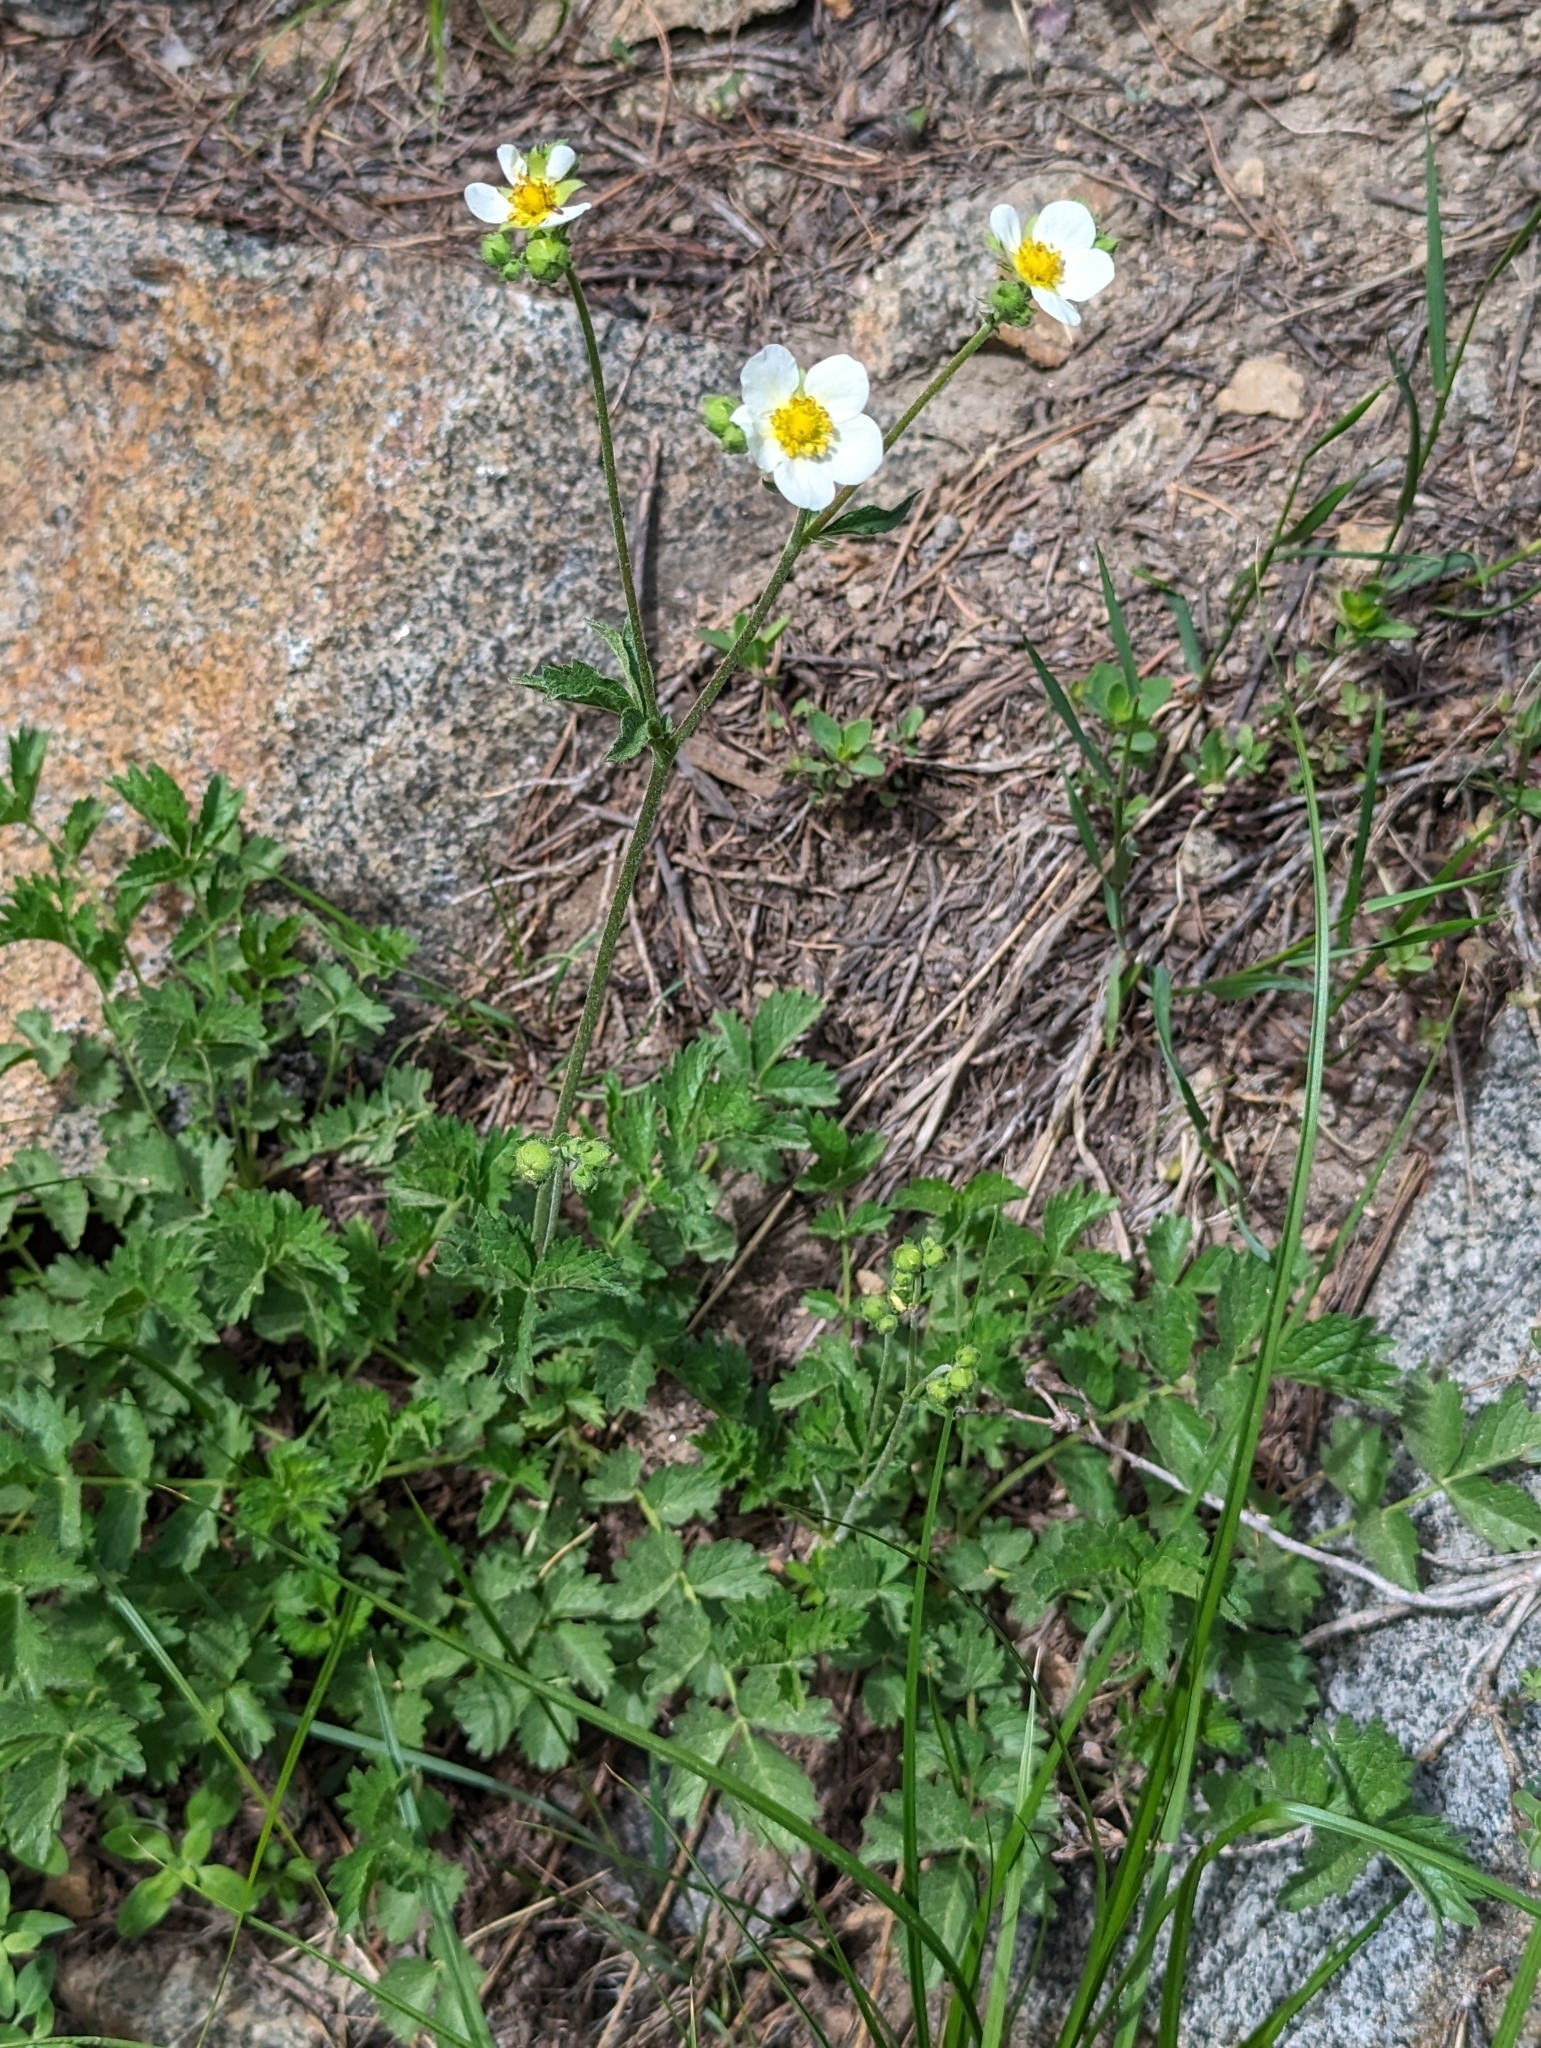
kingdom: Plantae
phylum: Tracheophyta
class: Magnoliopsida
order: Rosales
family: Rosaceae
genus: Drymocallis
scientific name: Drymocallis lactea
